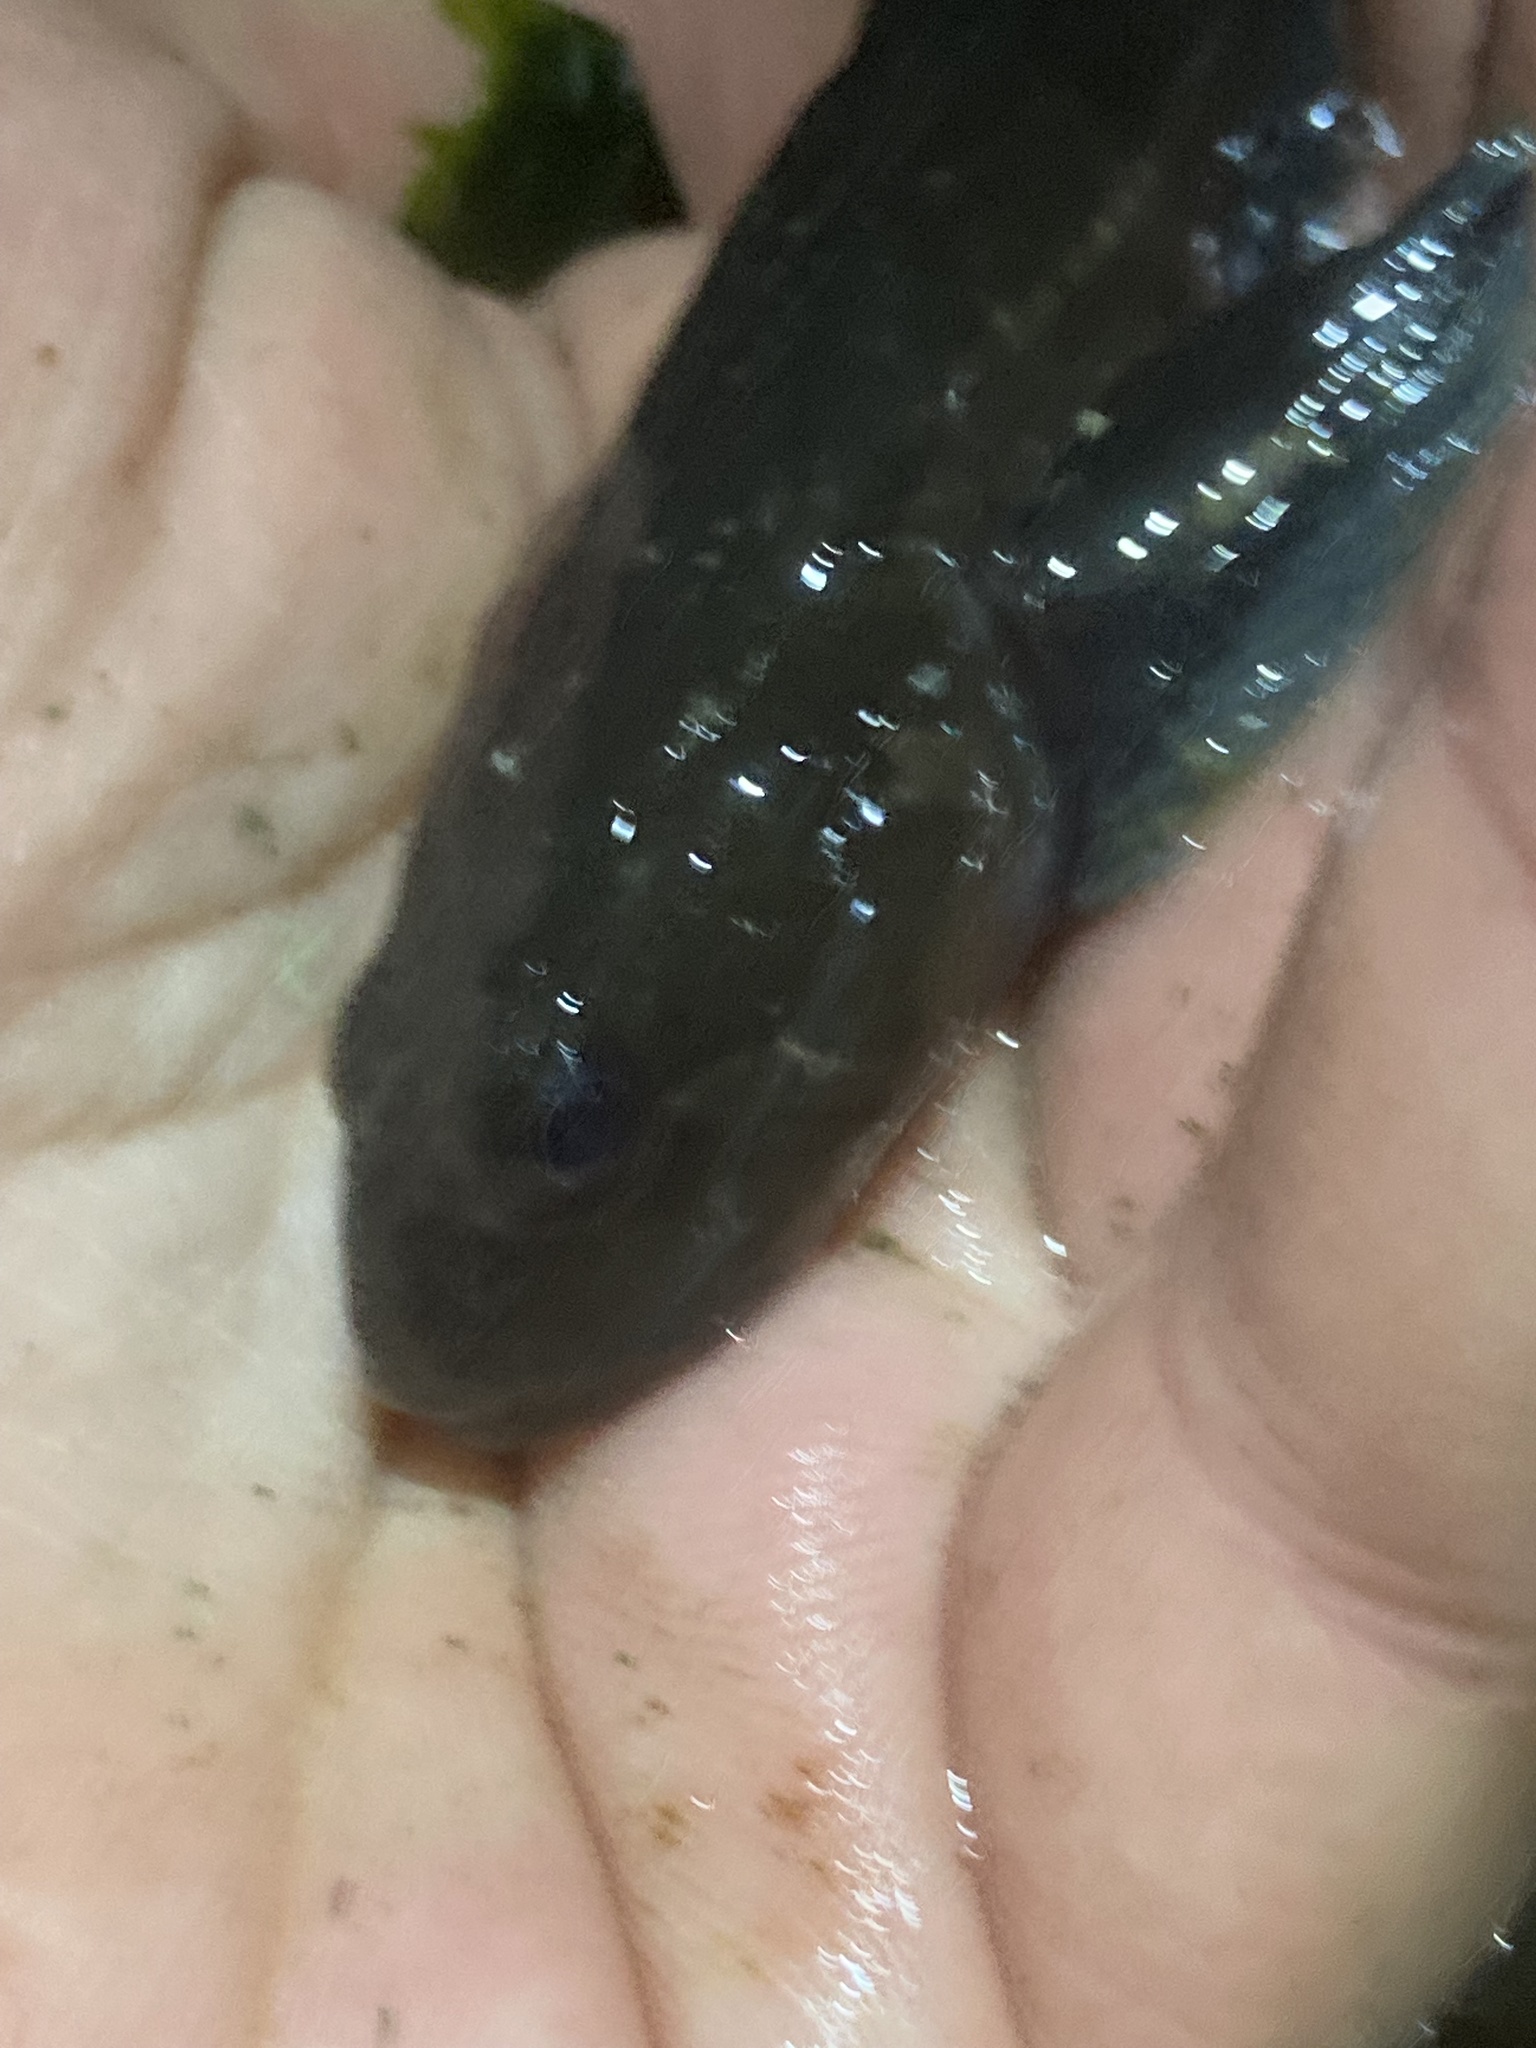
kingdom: Animalia
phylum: Chordata
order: Scorpaeniformes
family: Cottidae
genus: Ascelichthys
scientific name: Ascelichthys rhodorus
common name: Rosylip sculpin
